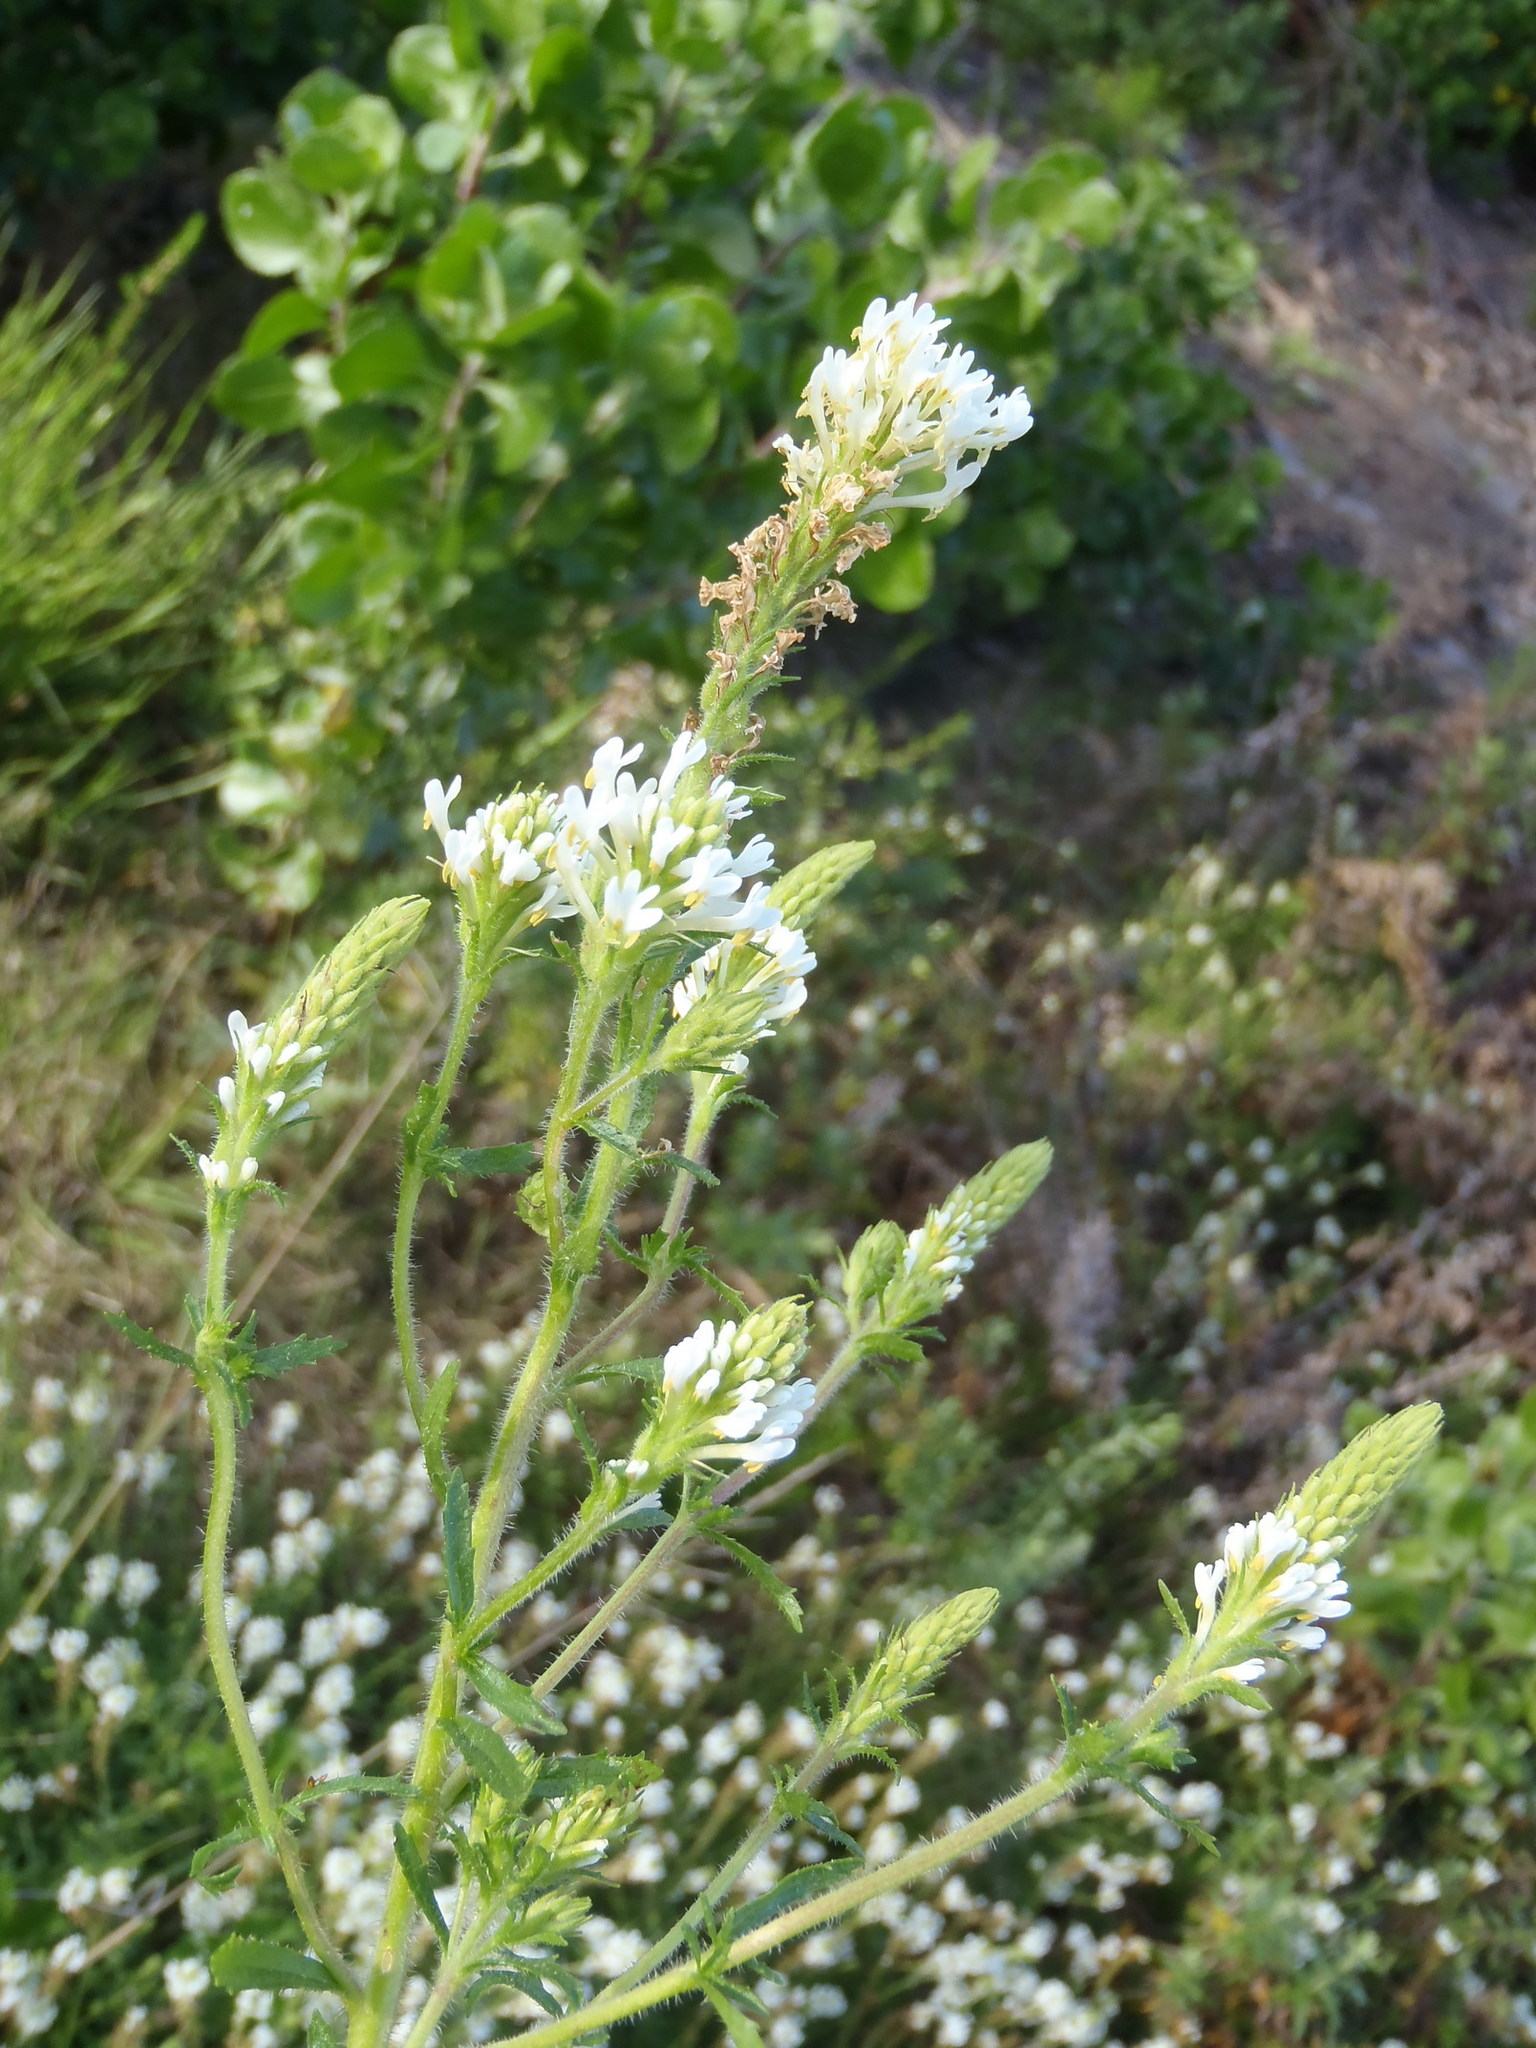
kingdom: Plantae
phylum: Tracheophyta
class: Magnoliopsida
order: Lamiales
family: Scrophulariaceae
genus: Dischisma
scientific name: Dischisma ciliatum
